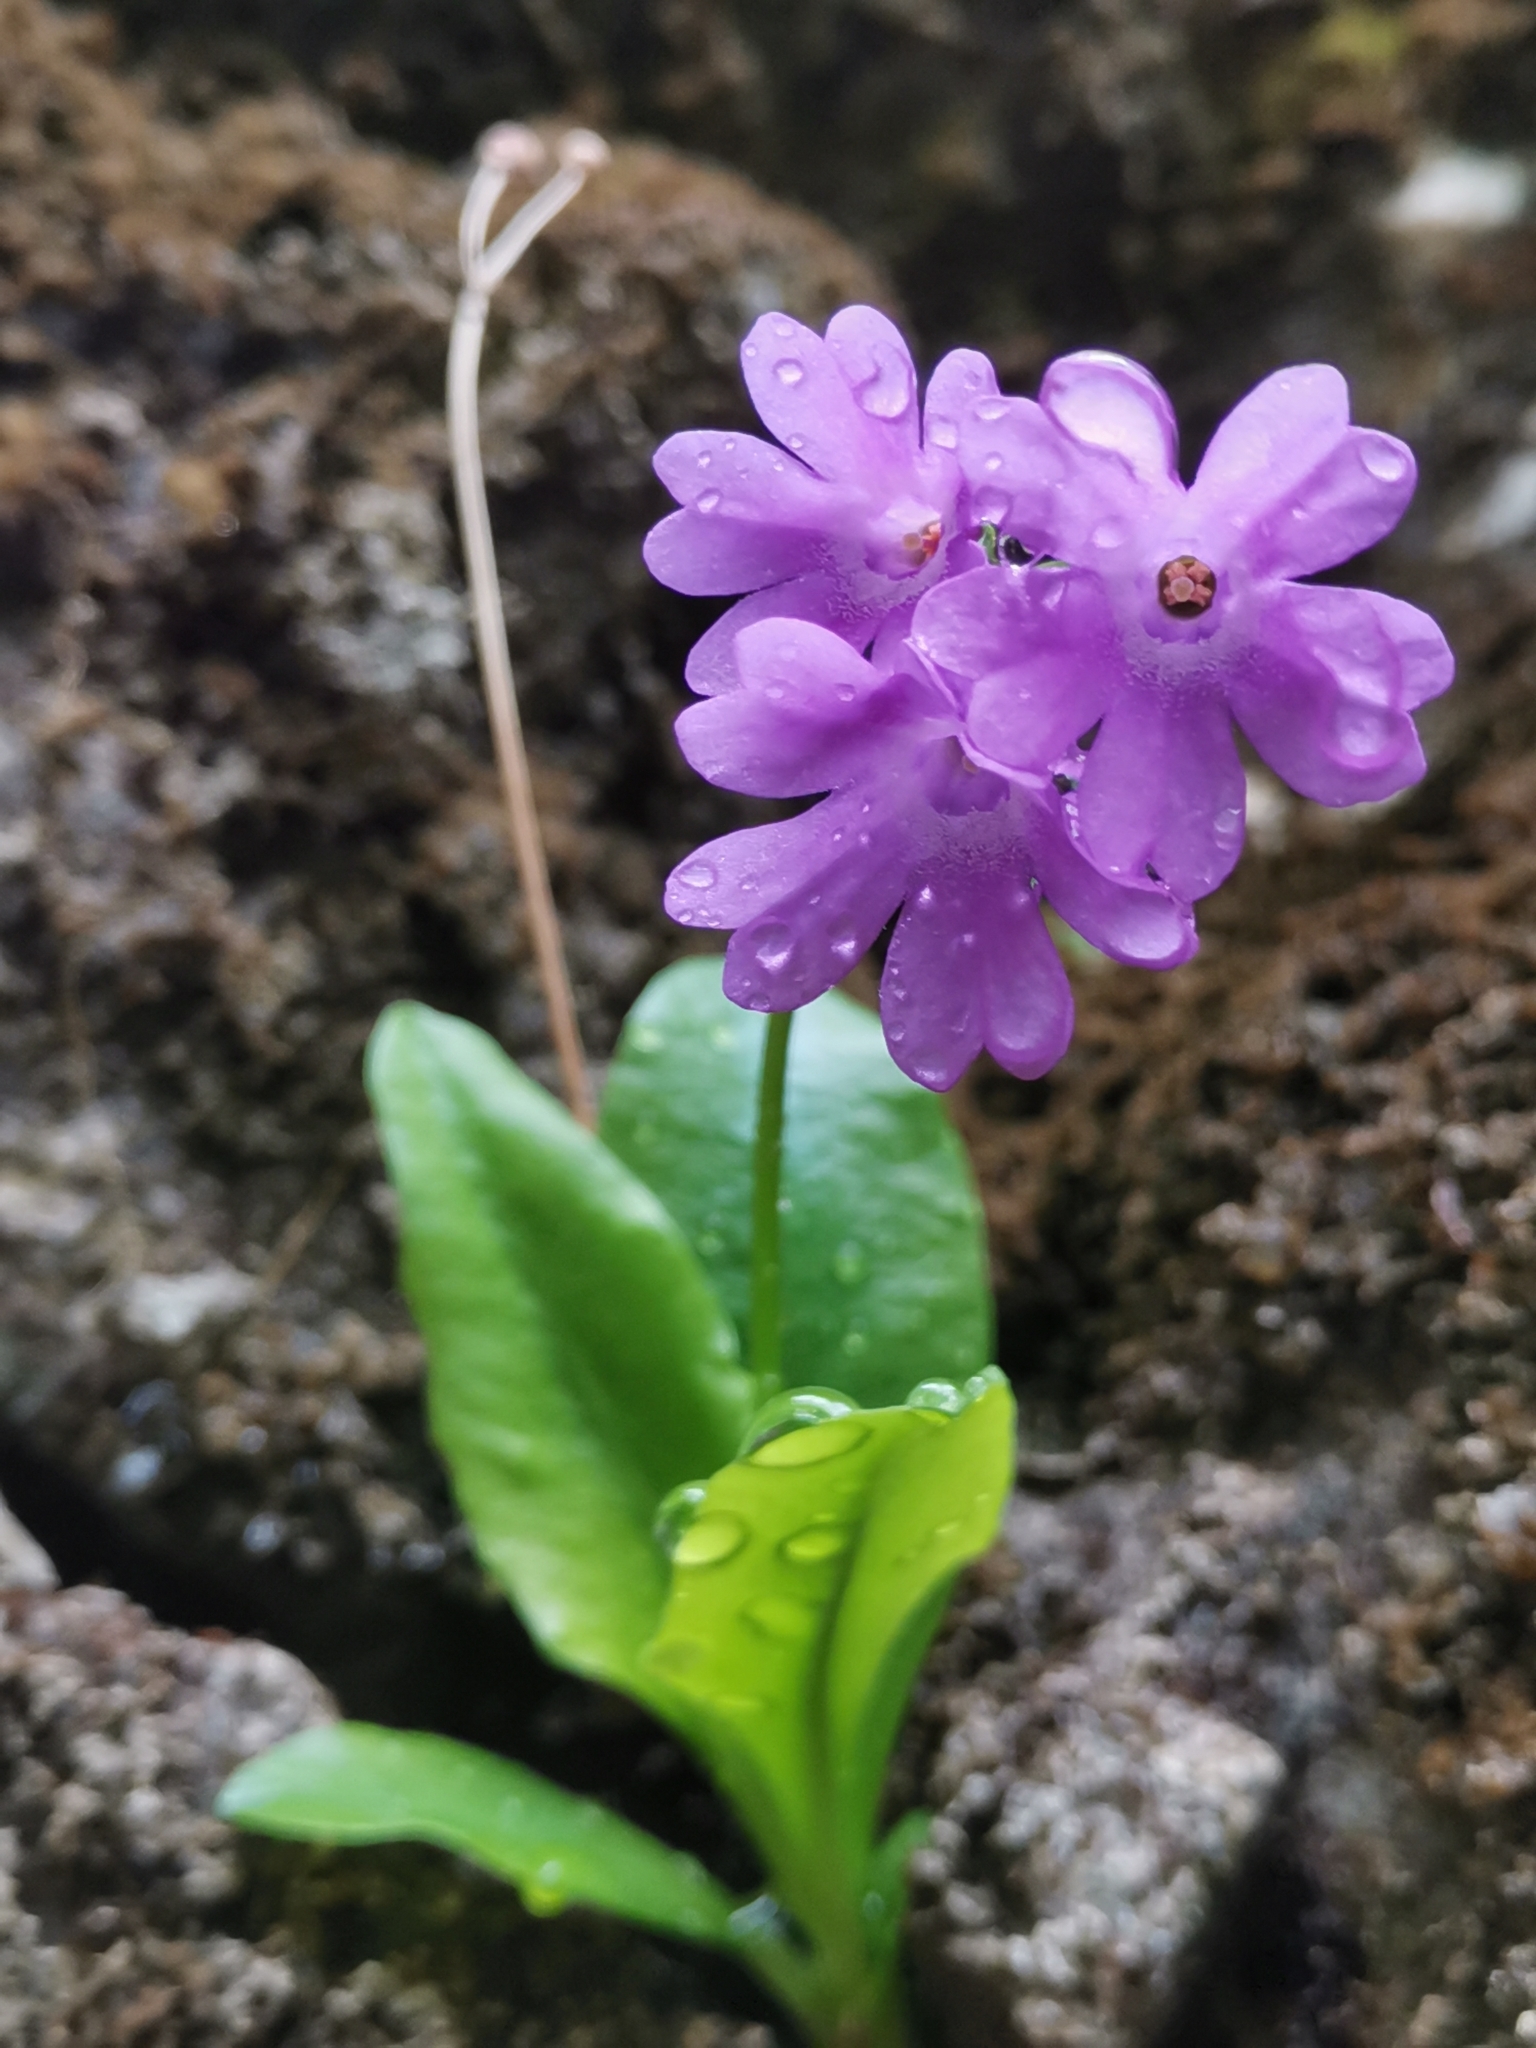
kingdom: Plantae
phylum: Tracheophyta
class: Magnoliopsida
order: Ericales
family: Primulaceae
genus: Primula
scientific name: Primula carniolica
